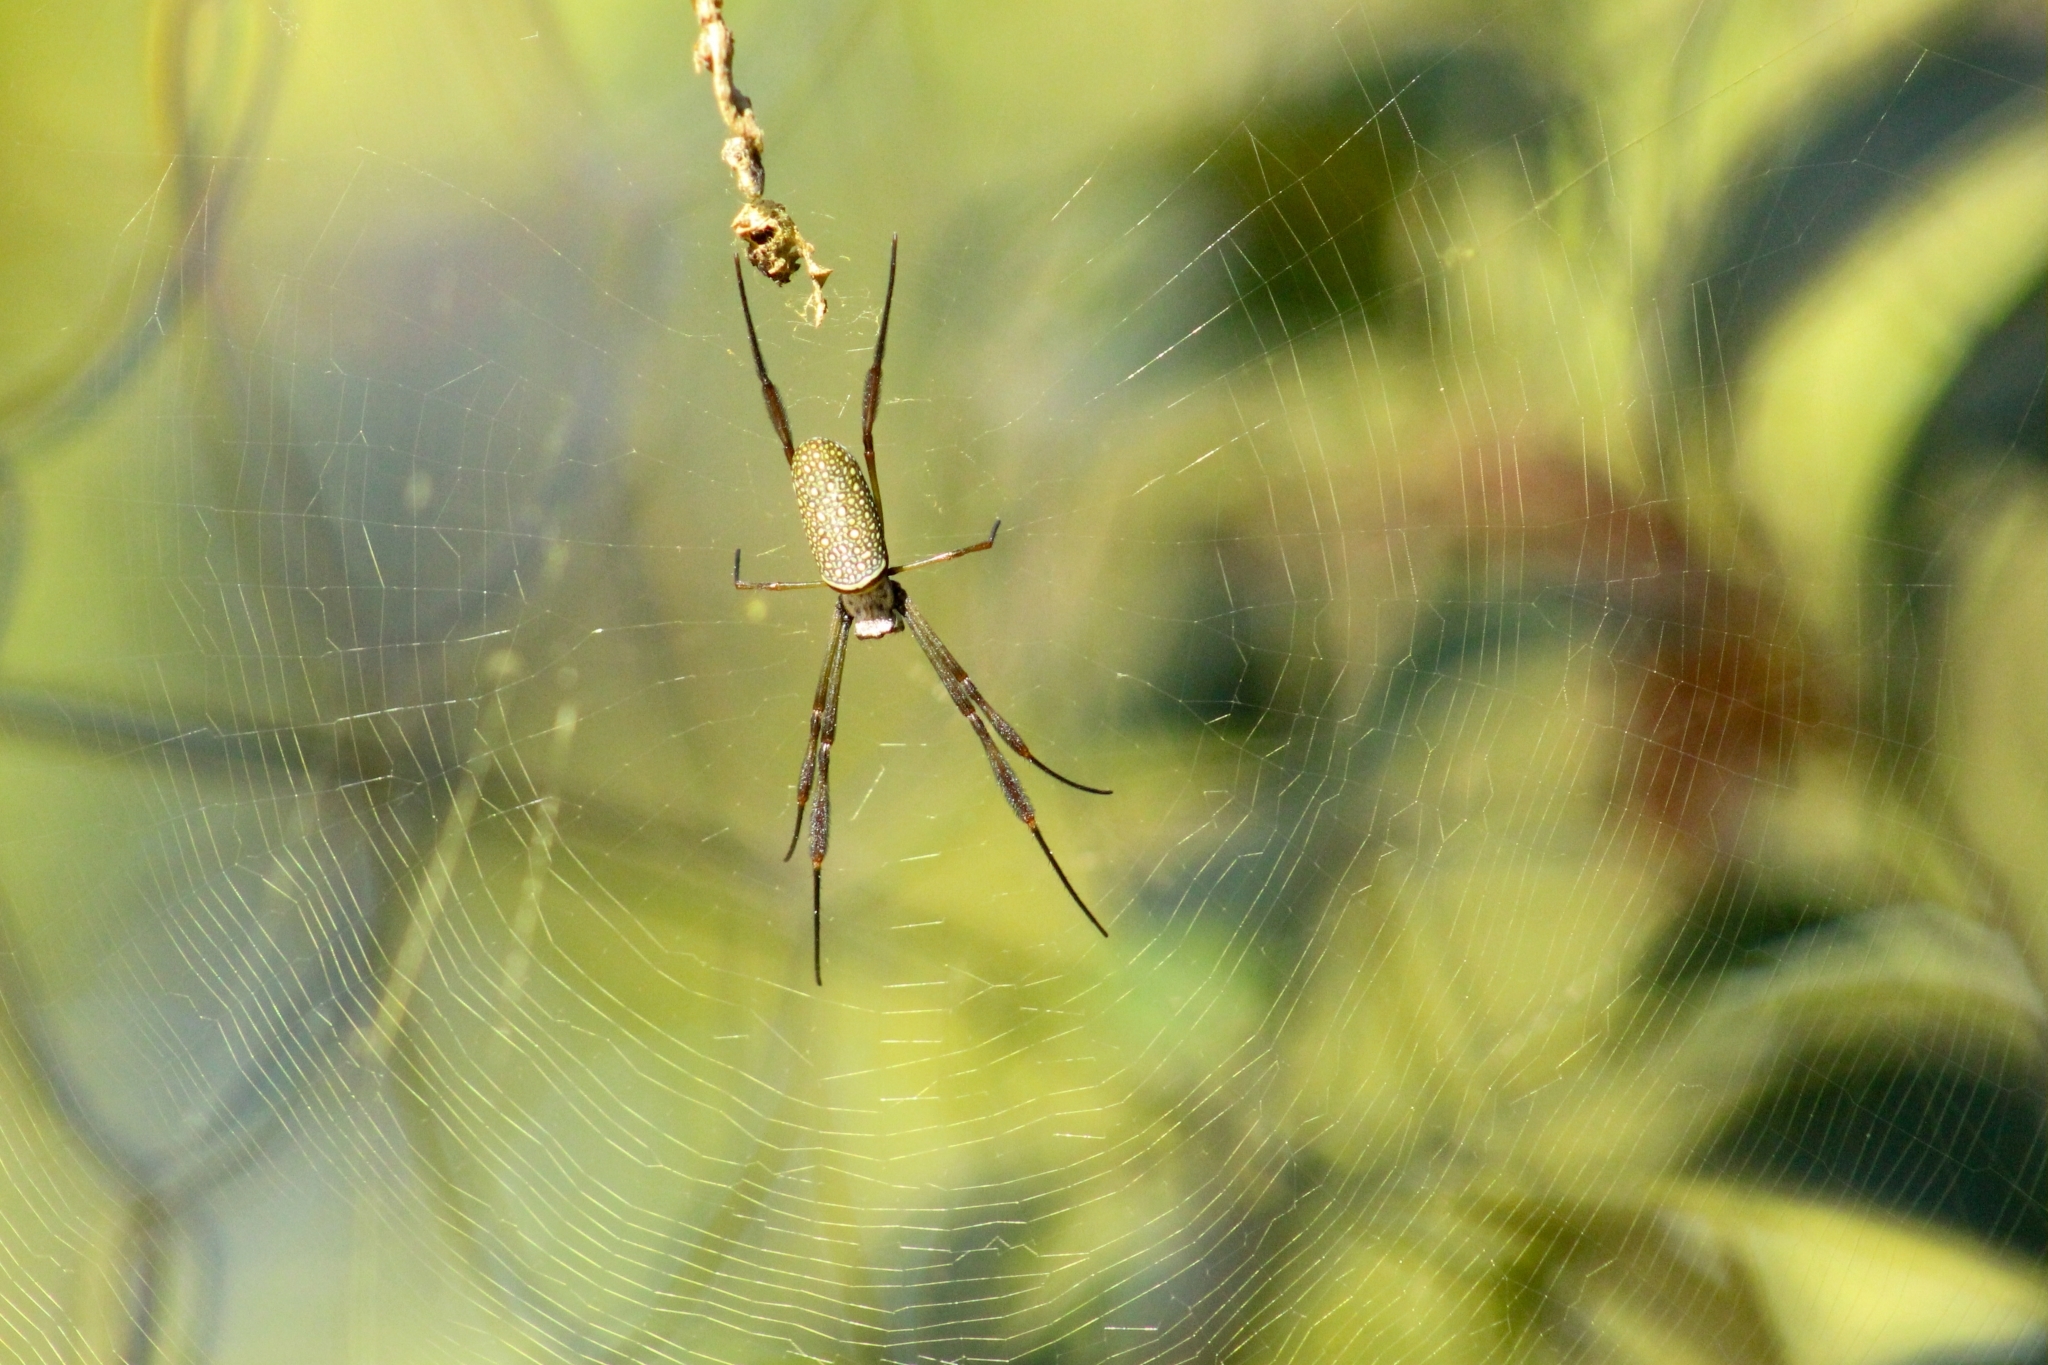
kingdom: Animalia
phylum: Arthropoda
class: Arachnida
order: Araneae
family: Araneidae
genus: Trichonephila
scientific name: Trichonephila clavipes
